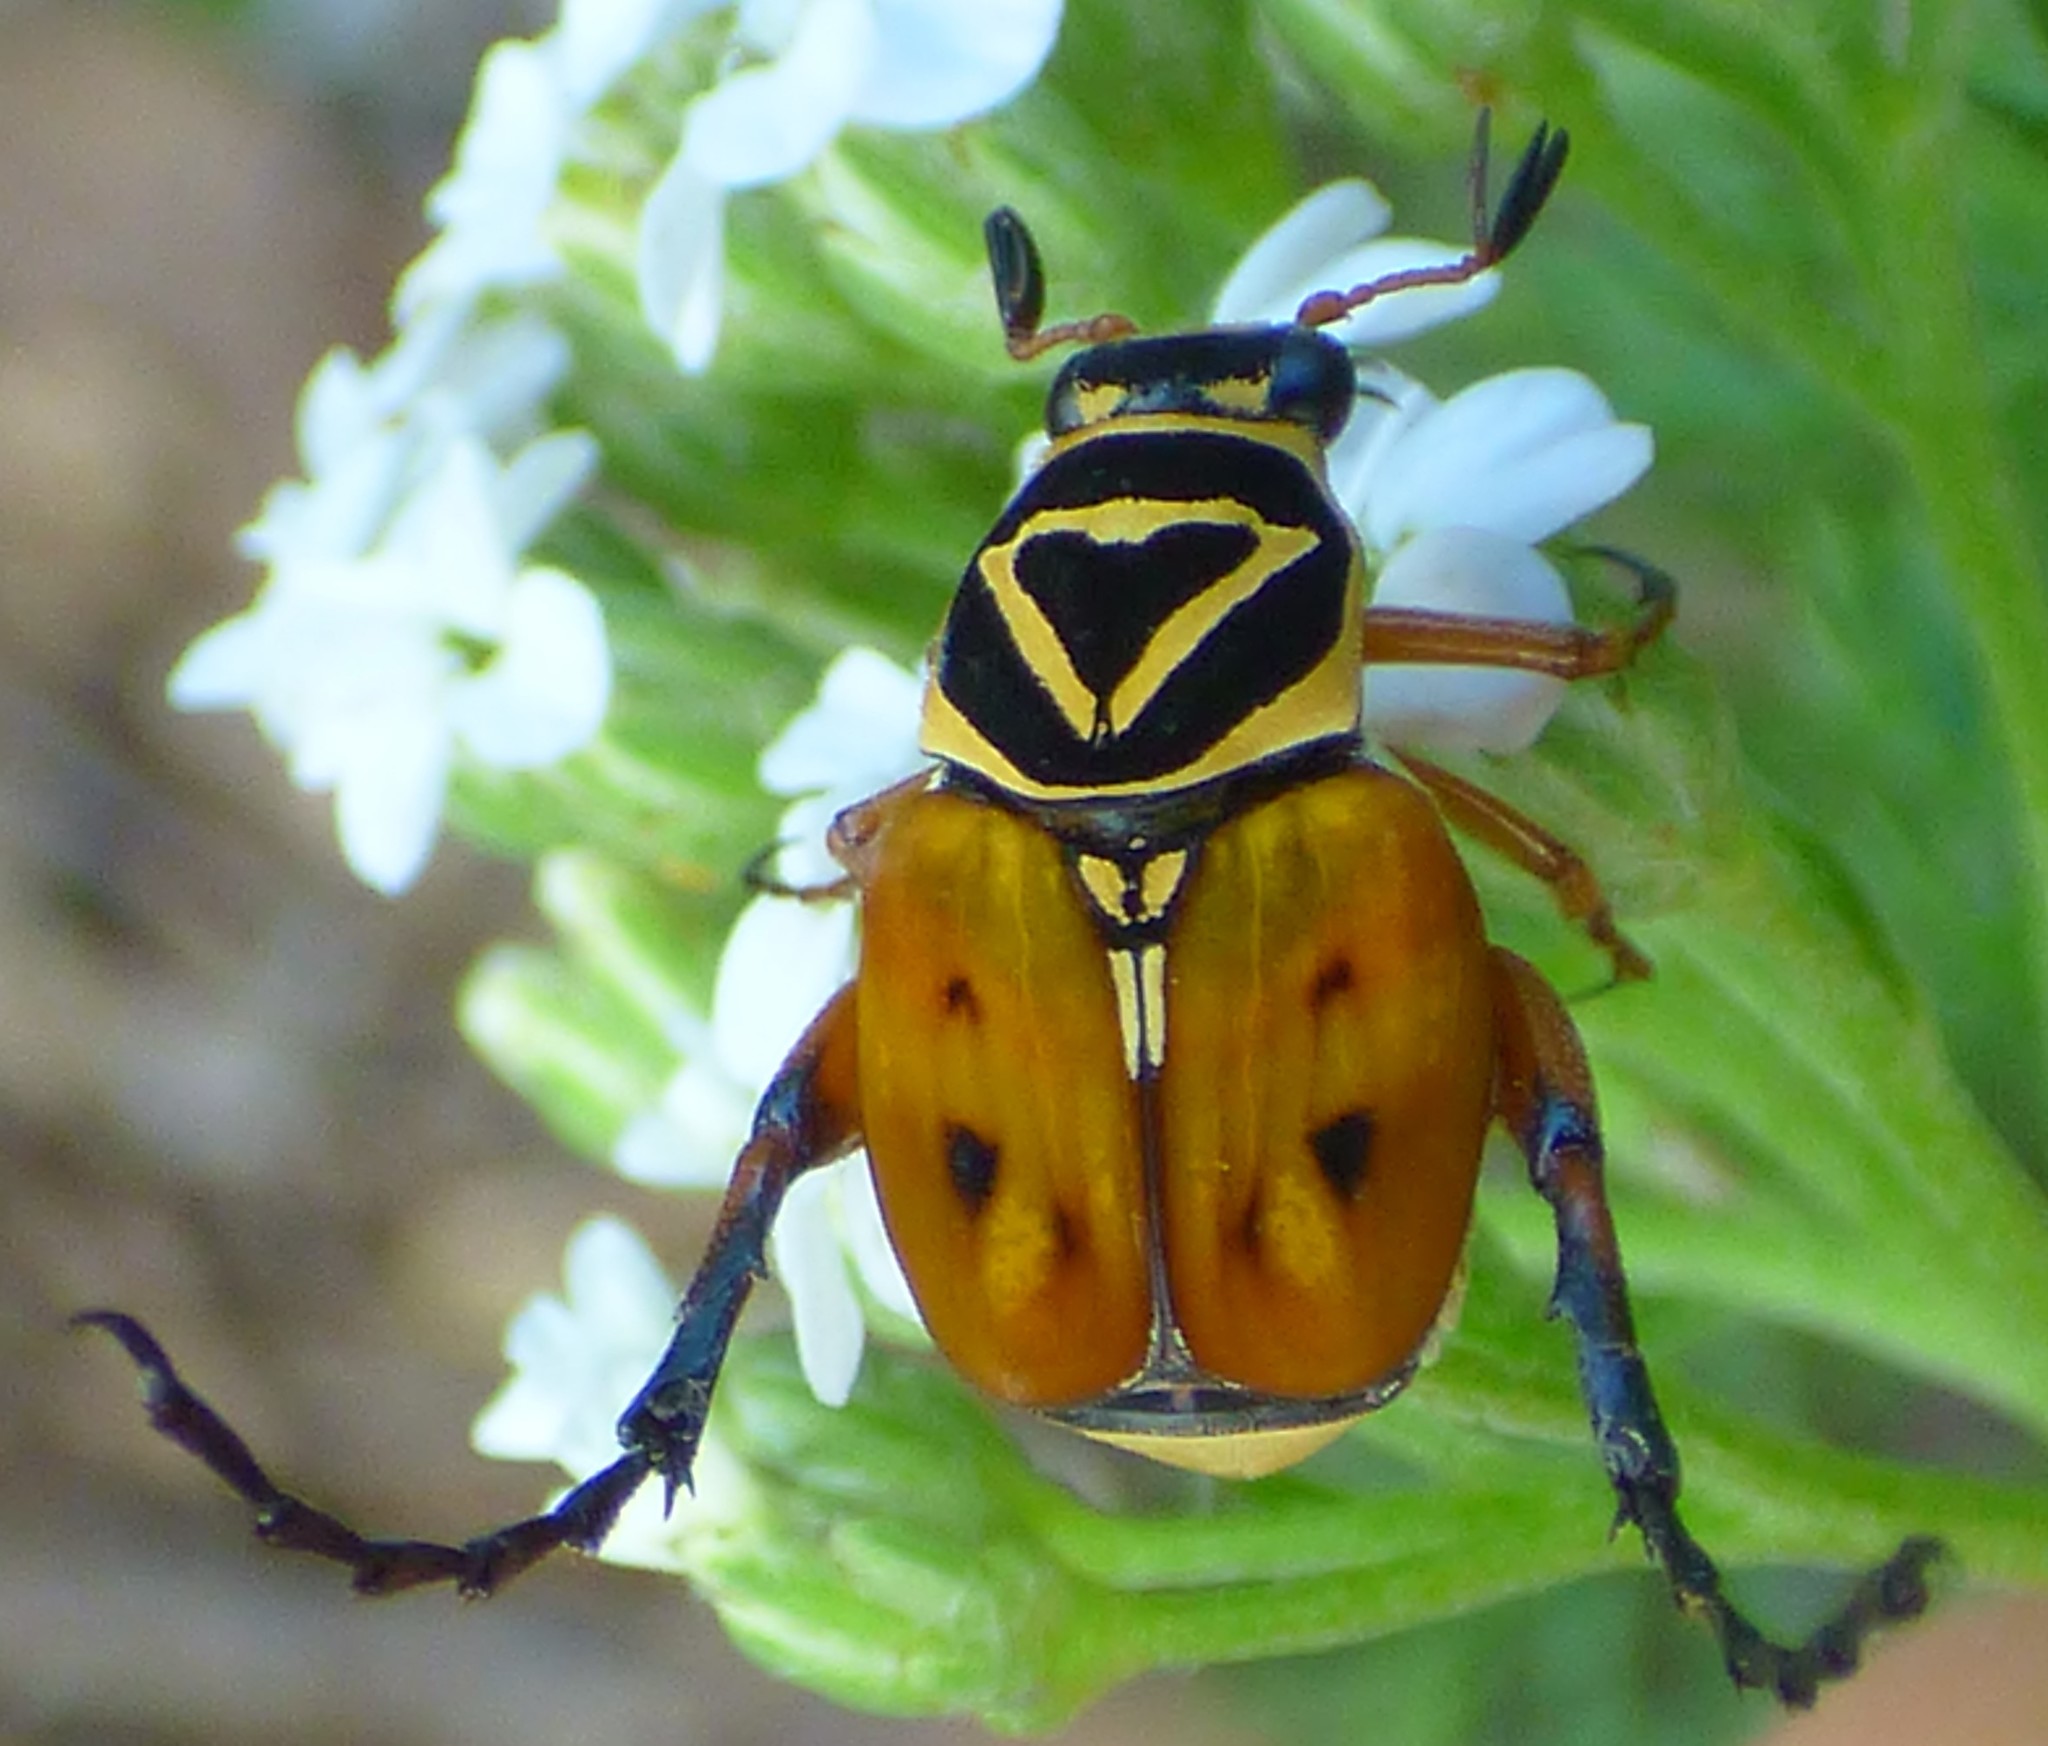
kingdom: Animalia
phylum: Arthropoda
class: Insecta
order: Coleoptera
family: Scarabaeidae
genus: Trigonopeltastes
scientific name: Trigonopeltastes delta
